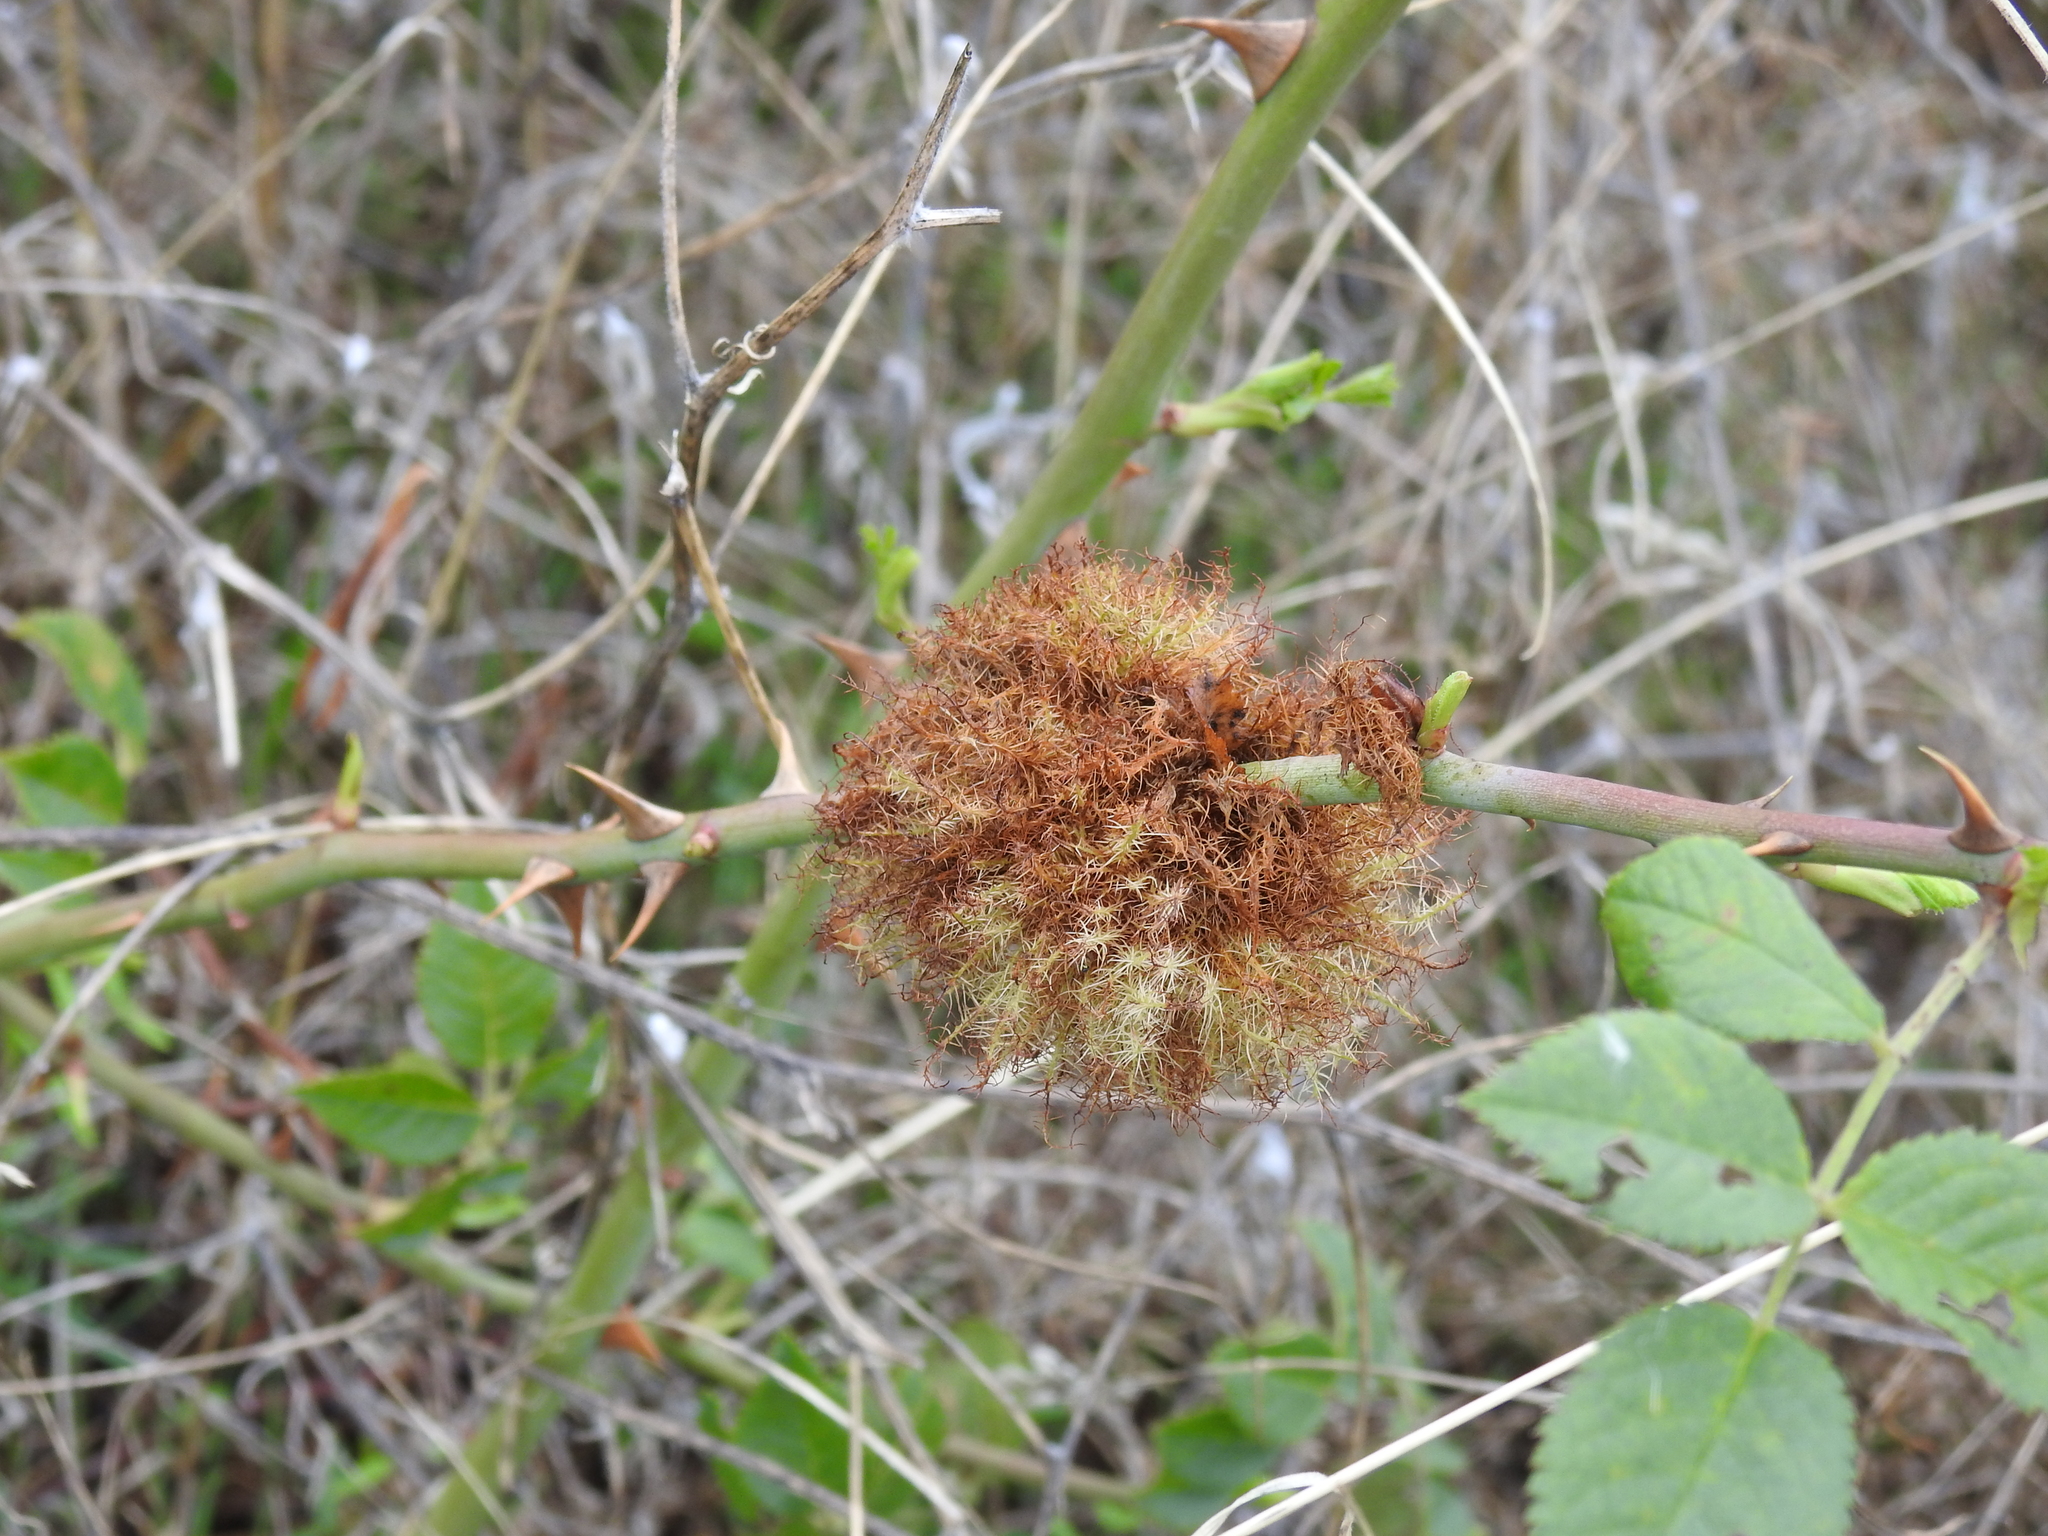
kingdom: Animalia
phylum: Arthropoda
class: Insecta
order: Hymenoptera
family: Cynipidae
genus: Diplolepis
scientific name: Diplolepis rosae
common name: Bedeguar gall
